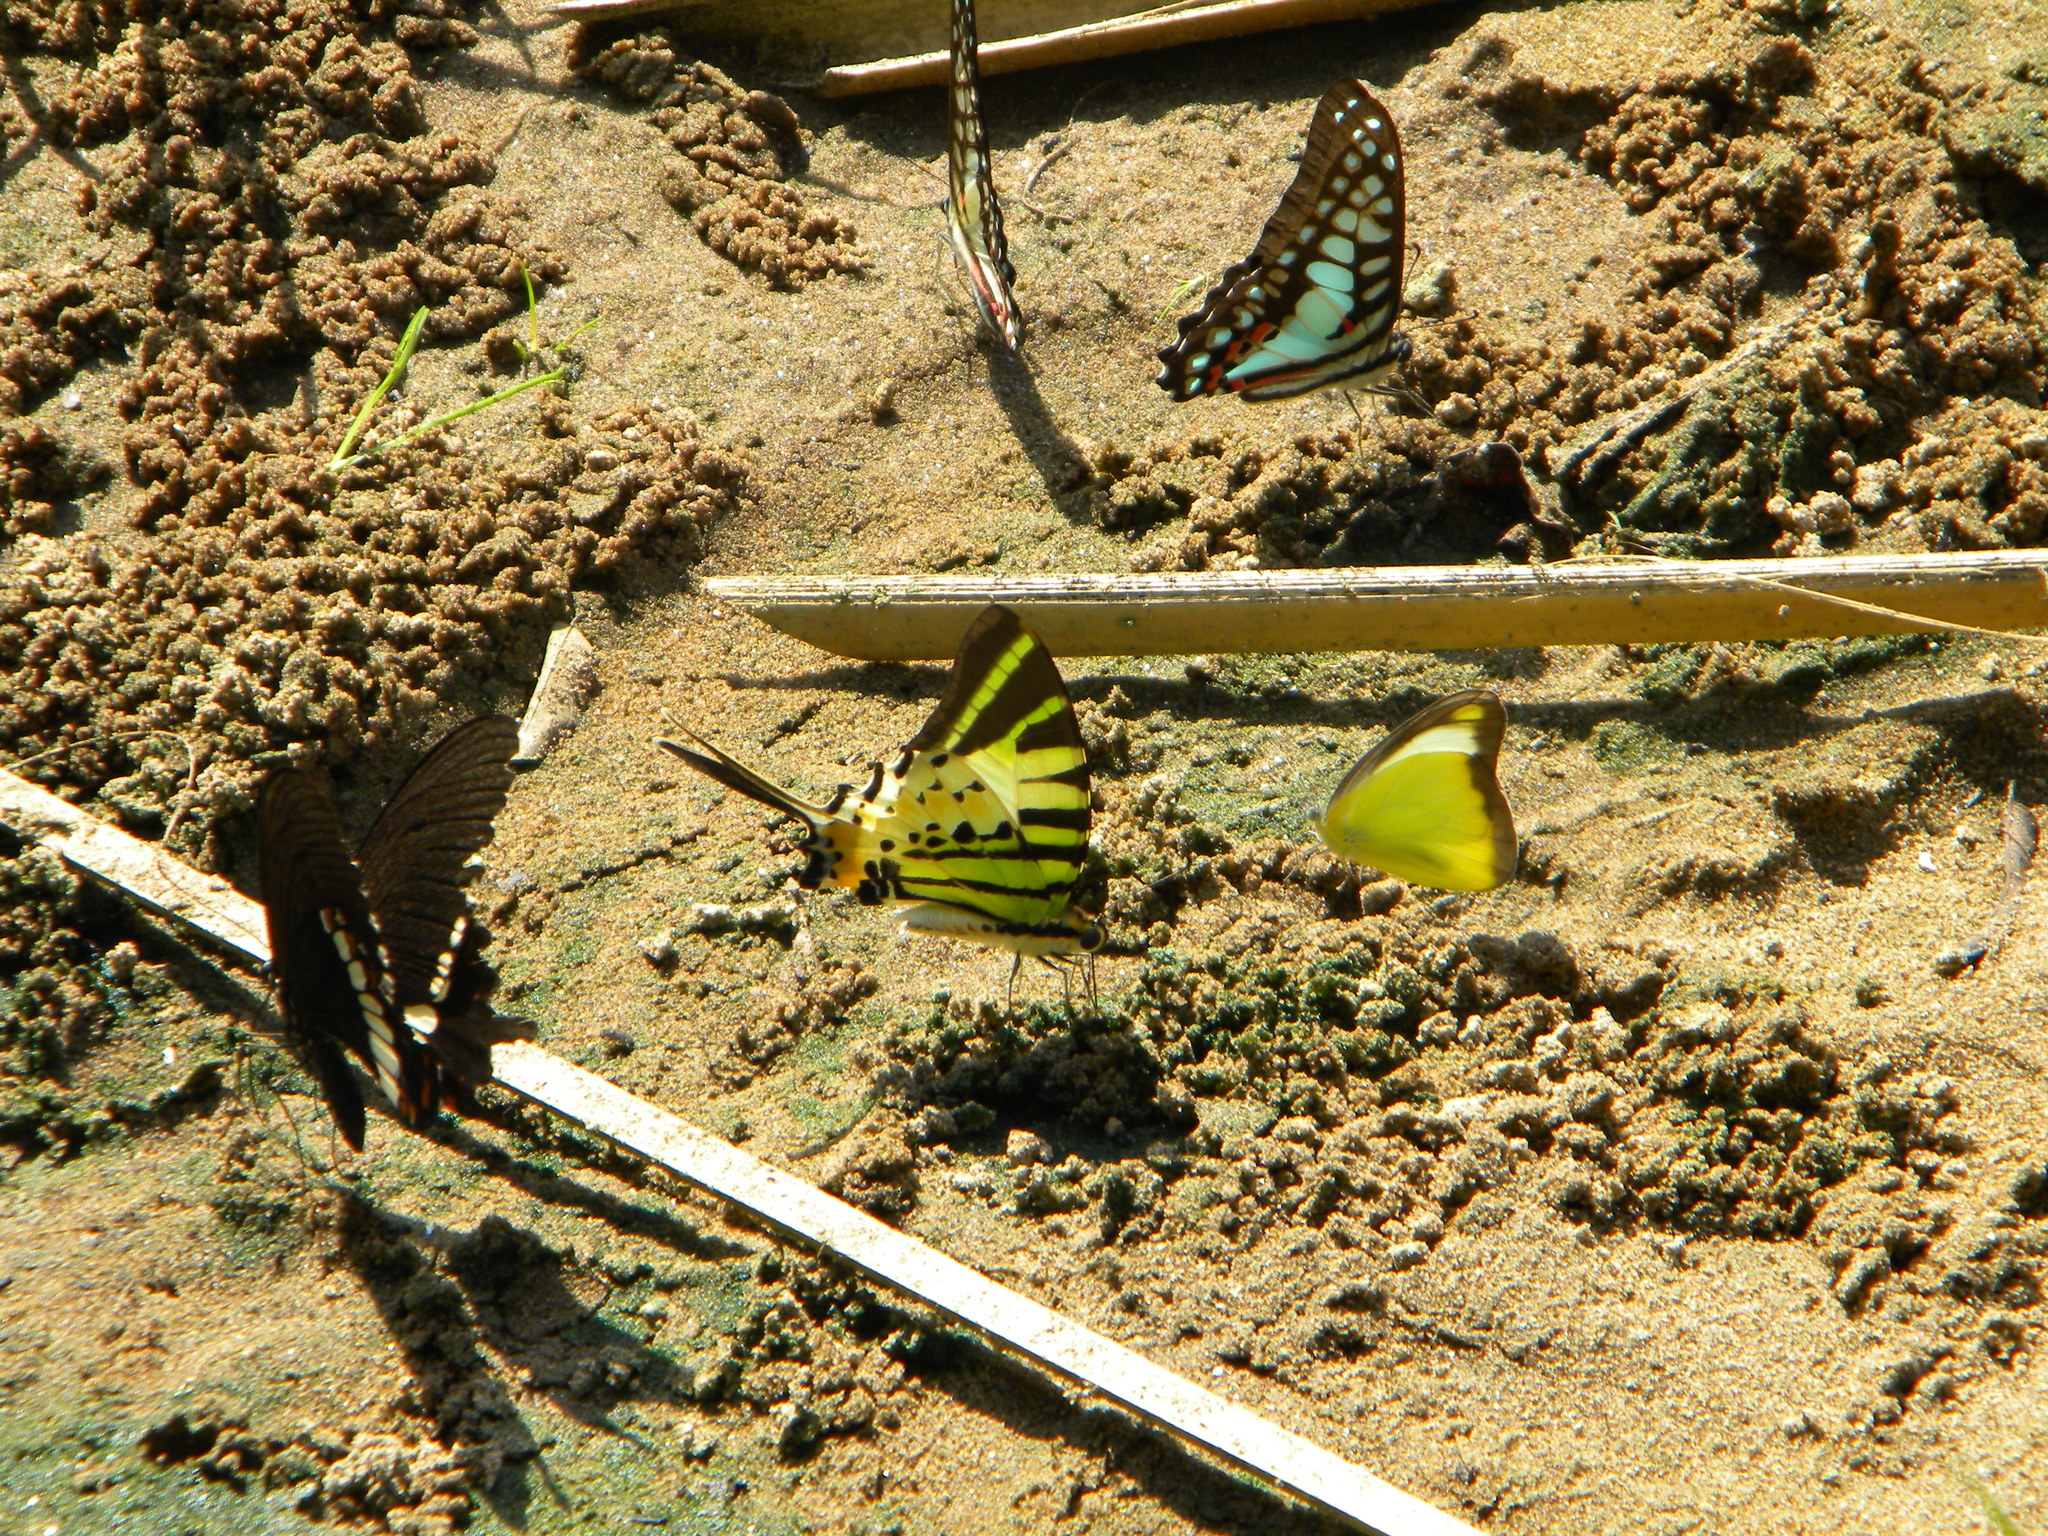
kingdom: Animalia
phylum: Arthropoda
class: Insecta
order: Lepidoptera
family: Pieridae
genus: Appias
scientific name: Appias lyncida
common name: Chocolate albatross
